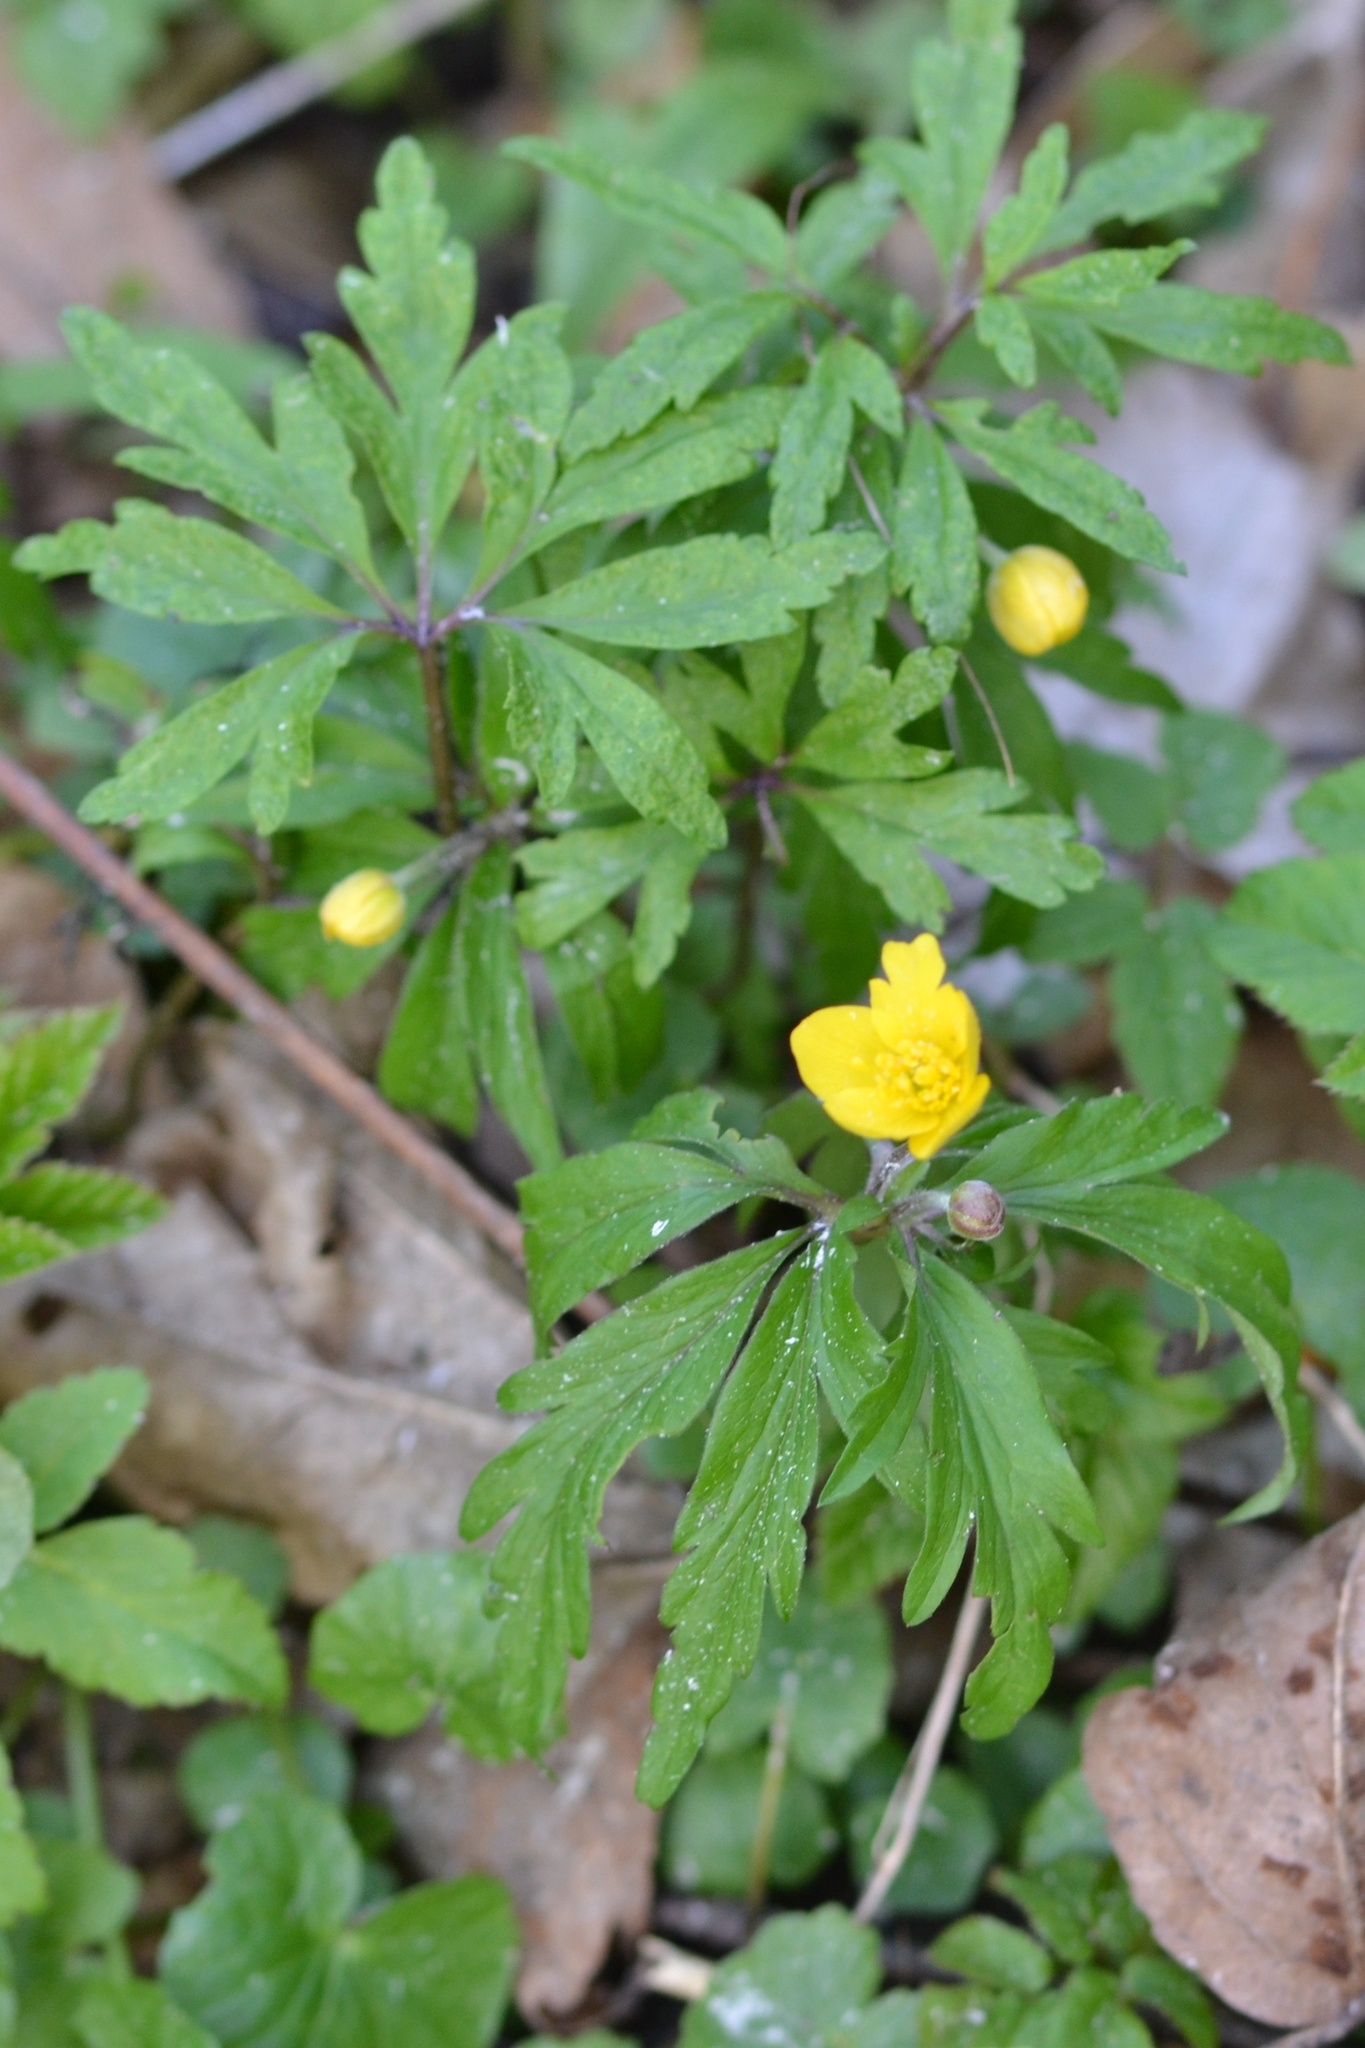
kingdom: Plantae
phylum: Tracheophyta
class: Magnoliopsida
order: Ranunculales
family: Ranunculaceae
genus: Anemone
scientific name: Anemone ranunculoides
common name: Yellow anemone
